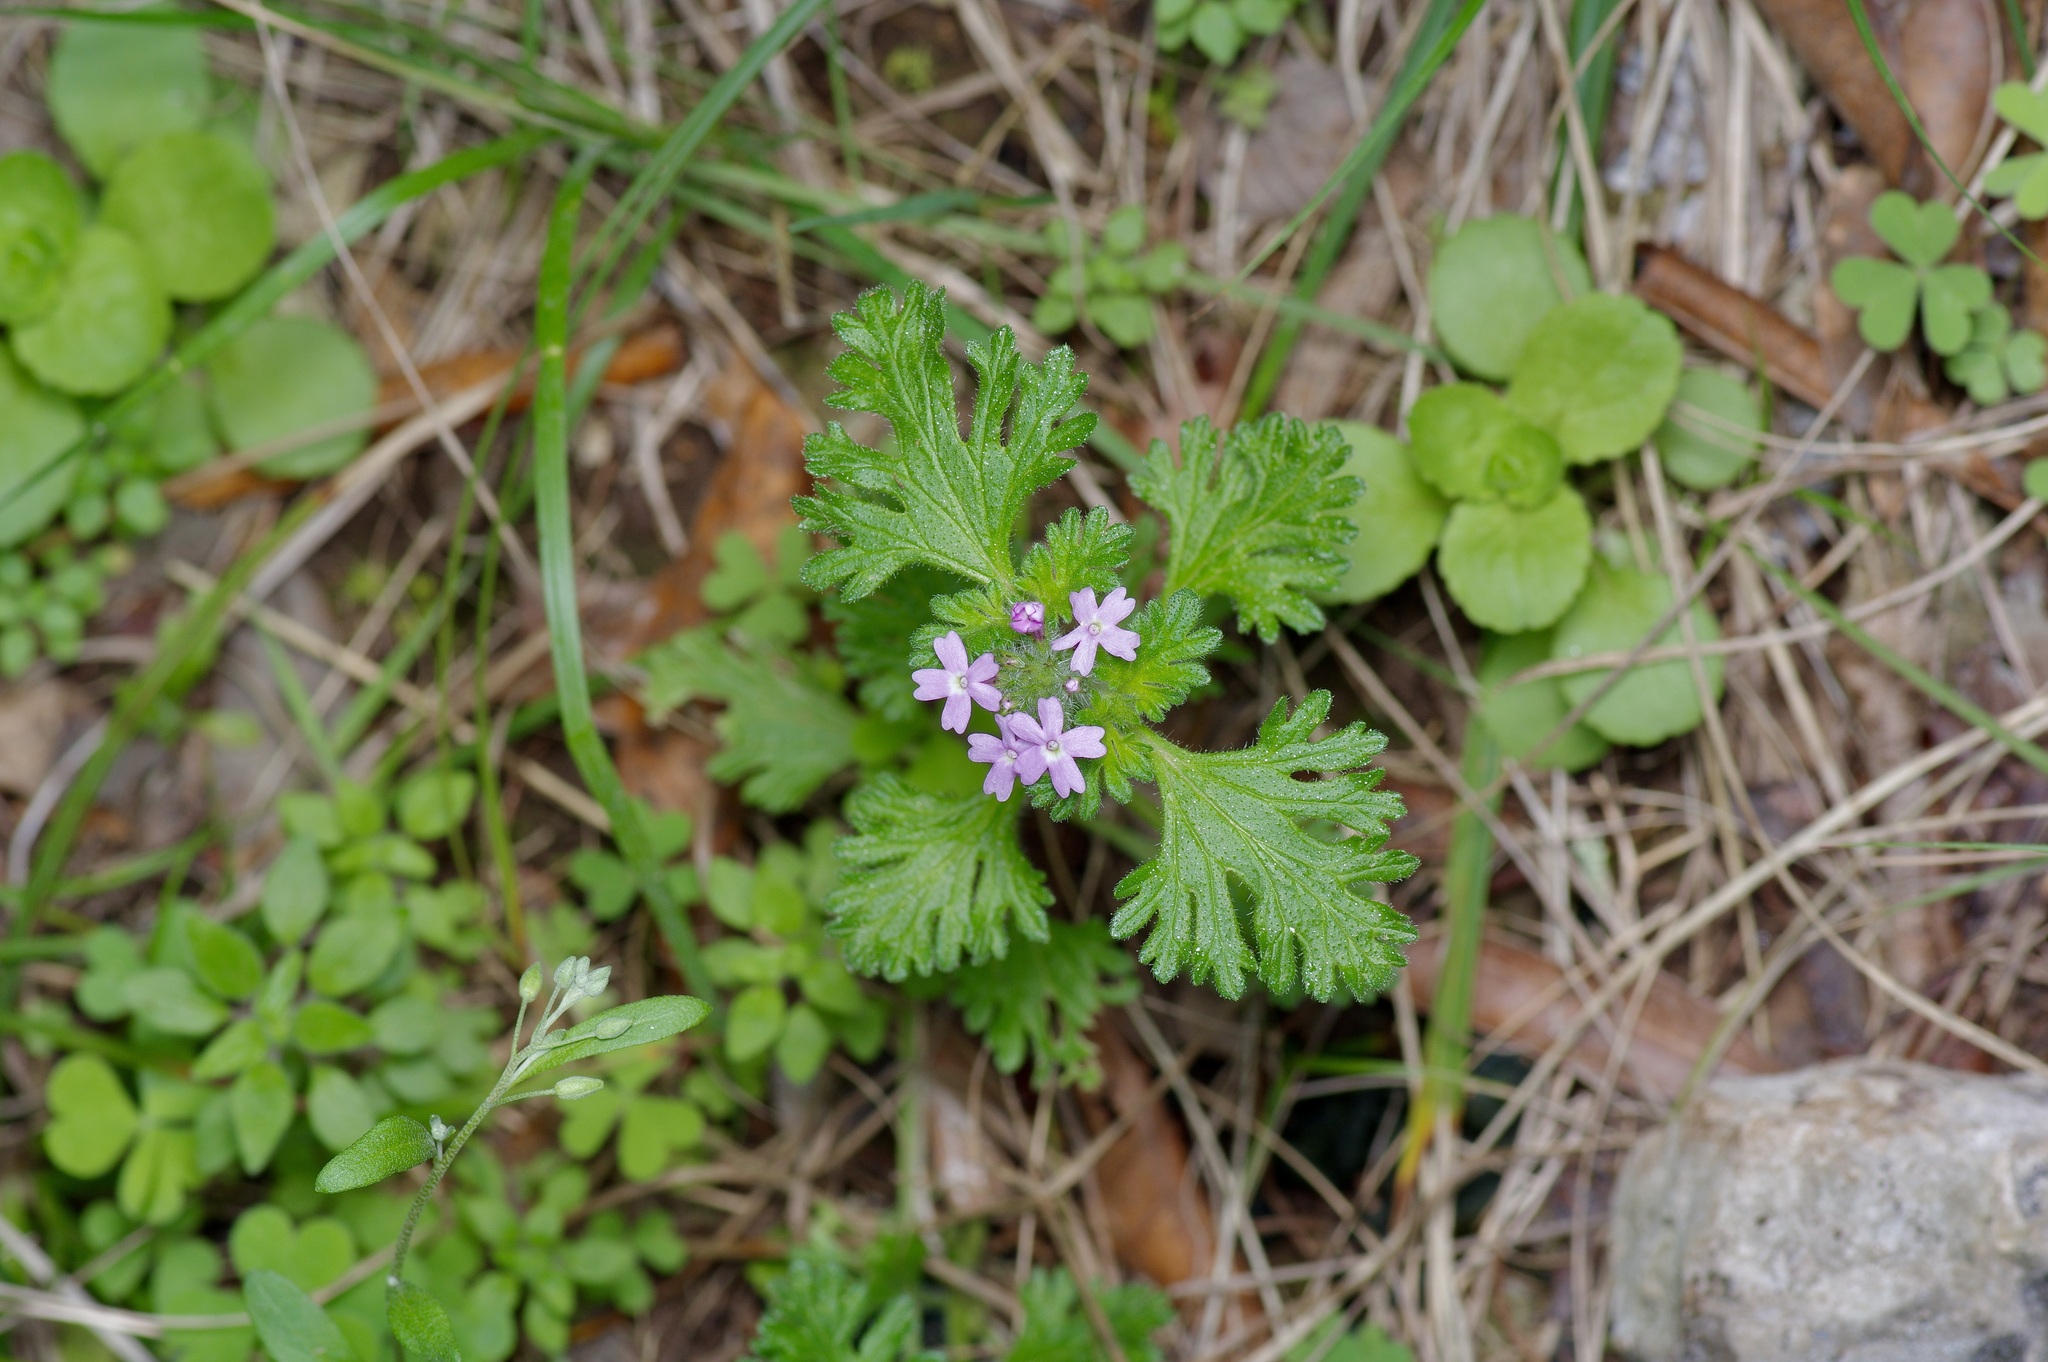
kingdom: Plantae
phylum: Tracheophyta
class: Magnoliopsida
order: Lamiales
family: Verbenaceae
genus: Verbena
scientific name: Verbena pumila
